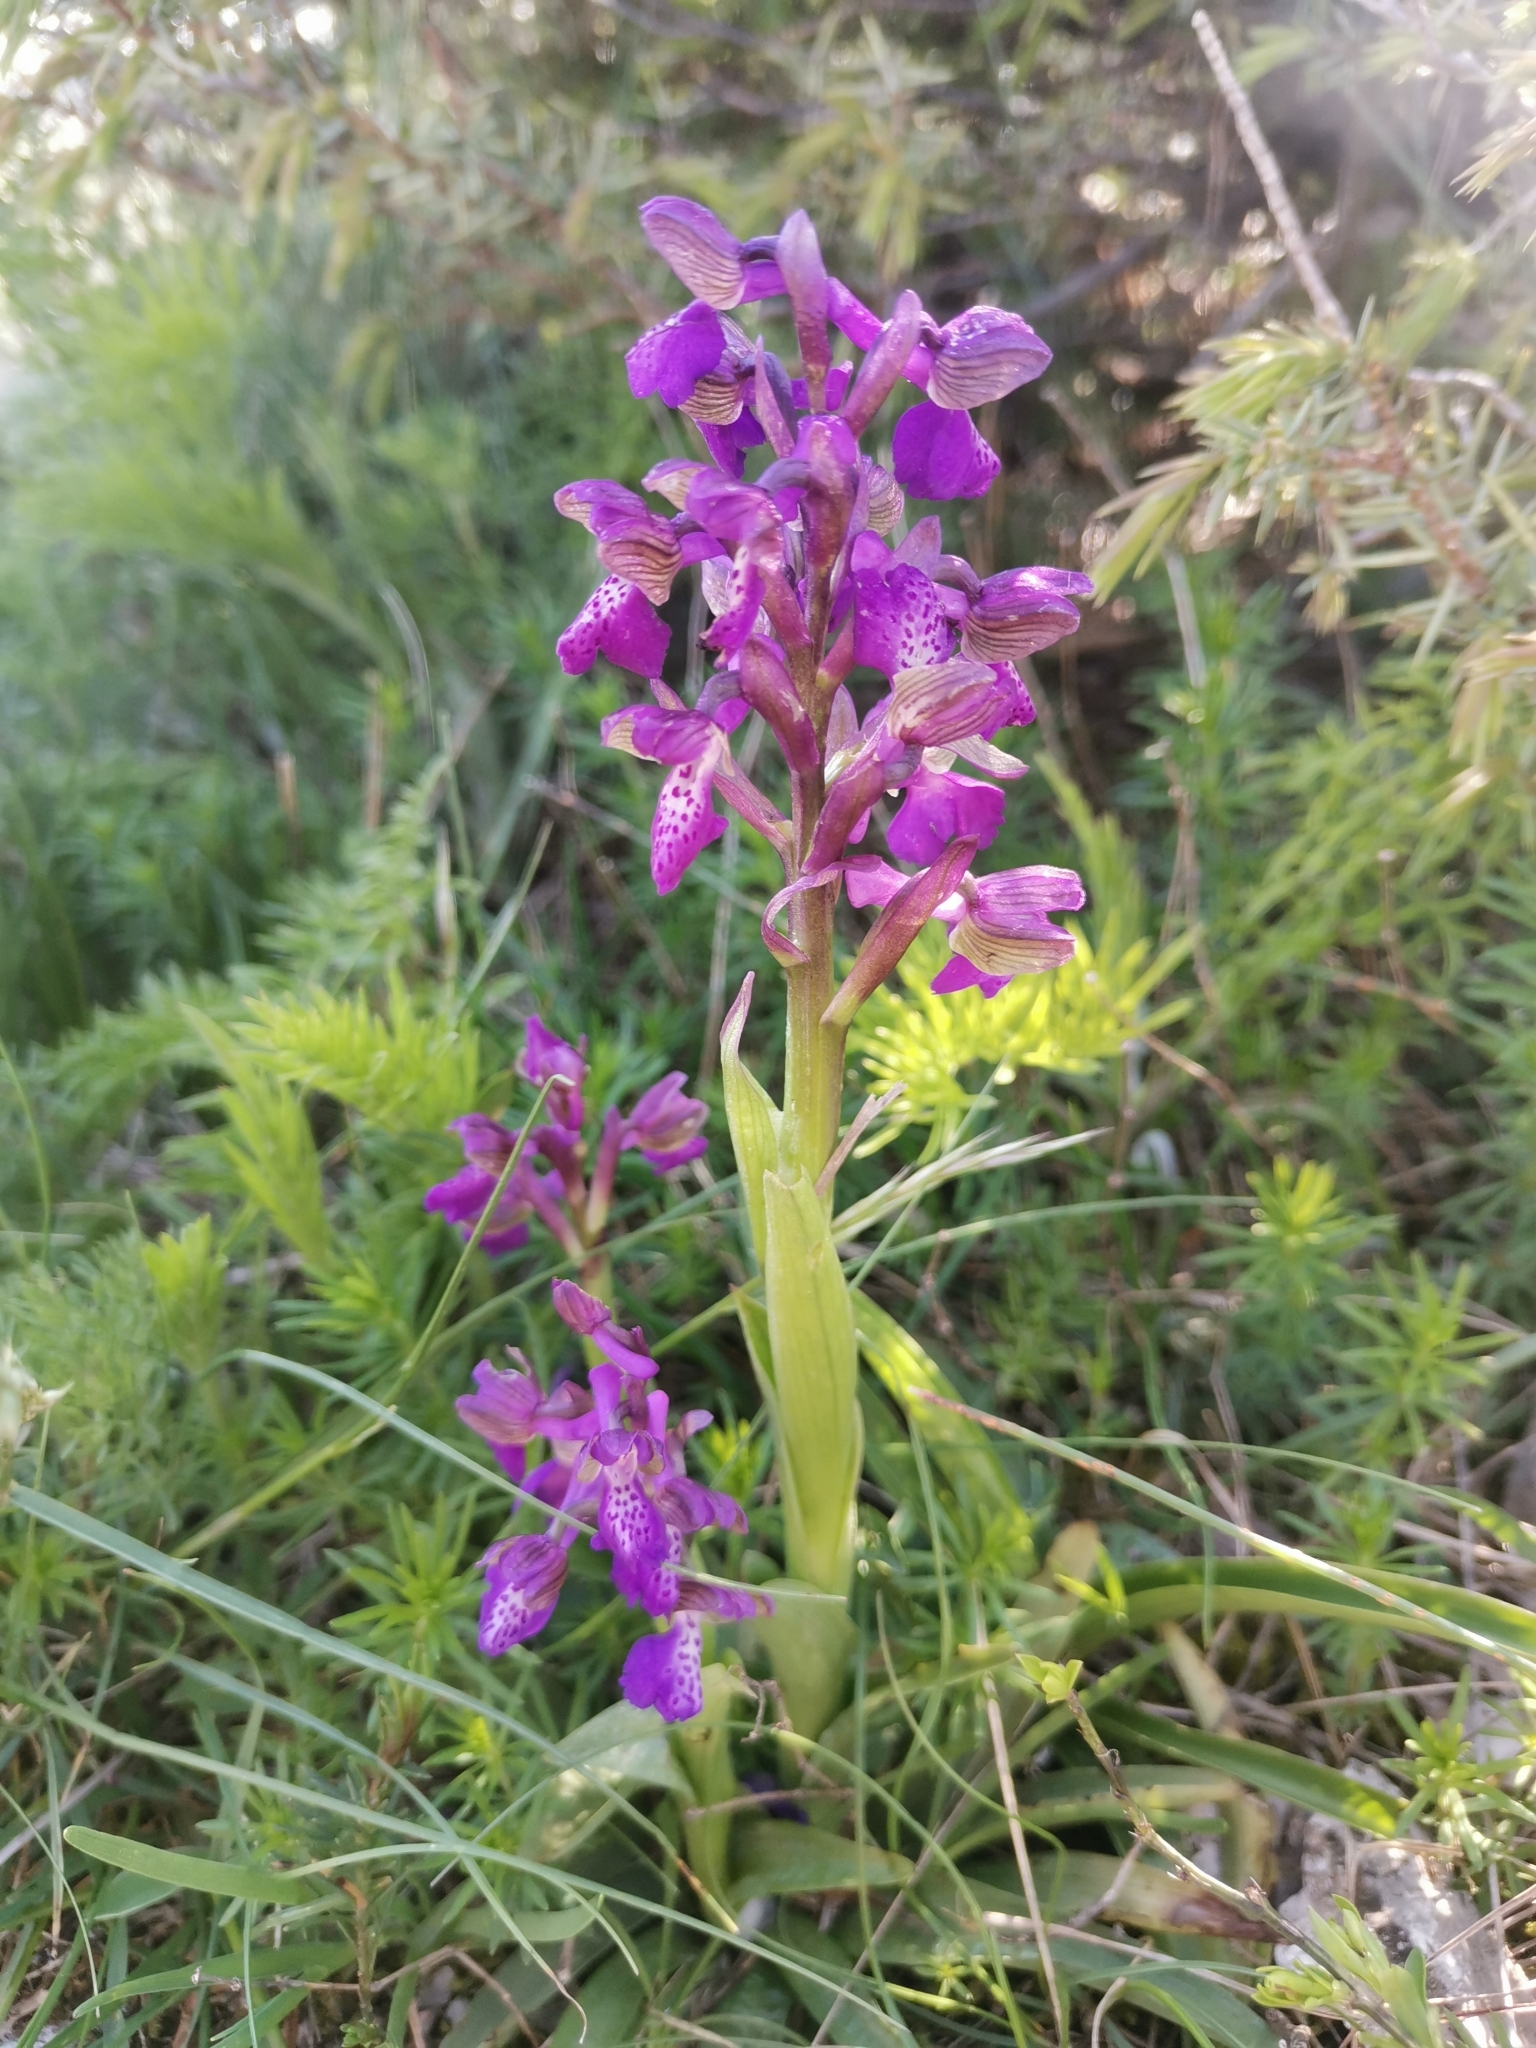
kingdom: Plantae
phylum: Tracheophyta
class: Liliopsida
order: Asparagales
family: Orchidaceae
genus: Anacamptis
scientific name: Anacamptis morio
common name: Green-winged orchid
